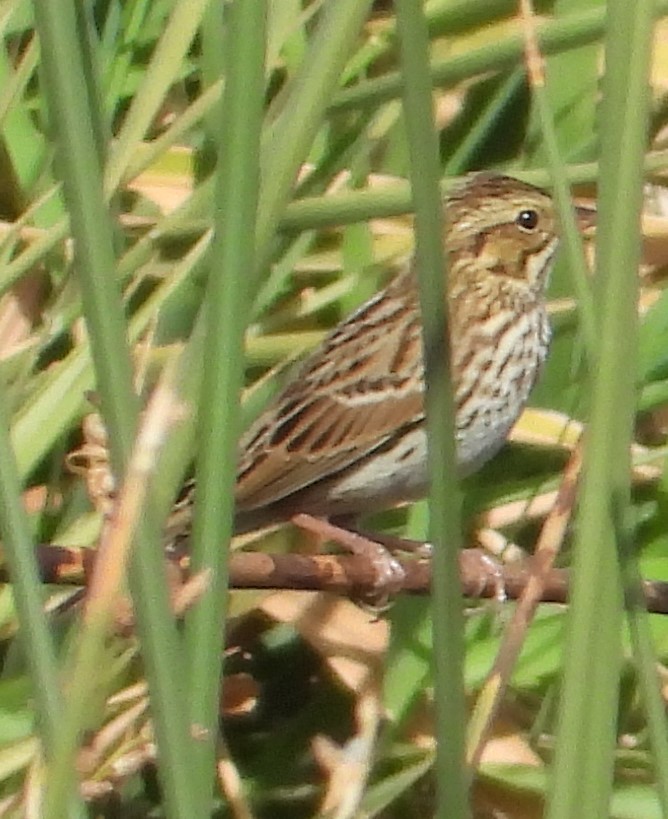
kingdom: Animalia
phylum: Chordata
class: Aves
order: Passeriformes
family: Passerellidae
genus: Passerculus
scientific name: Passerculus sandwichensis
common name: Savannah sparrow
